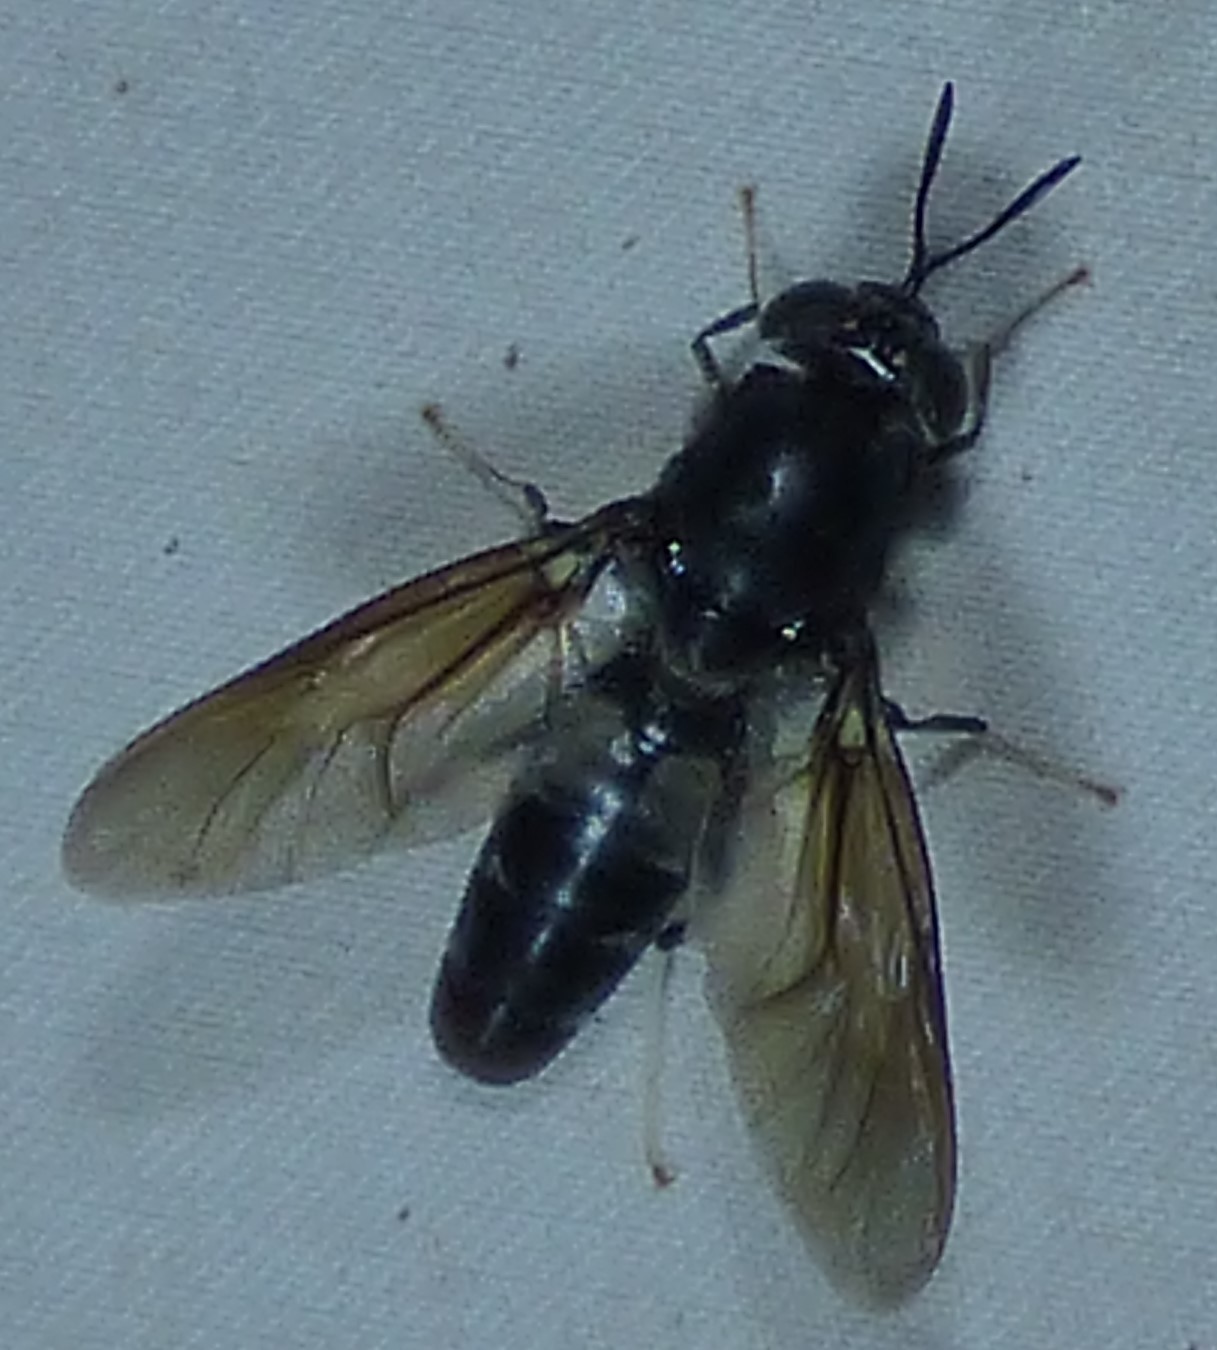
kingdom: Animalia
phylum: Arthropoda
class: Insecta
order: Diptera
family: Stratiomyidae
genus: Hermetia
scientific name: Hermetia illucens
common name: Black soldier fly
